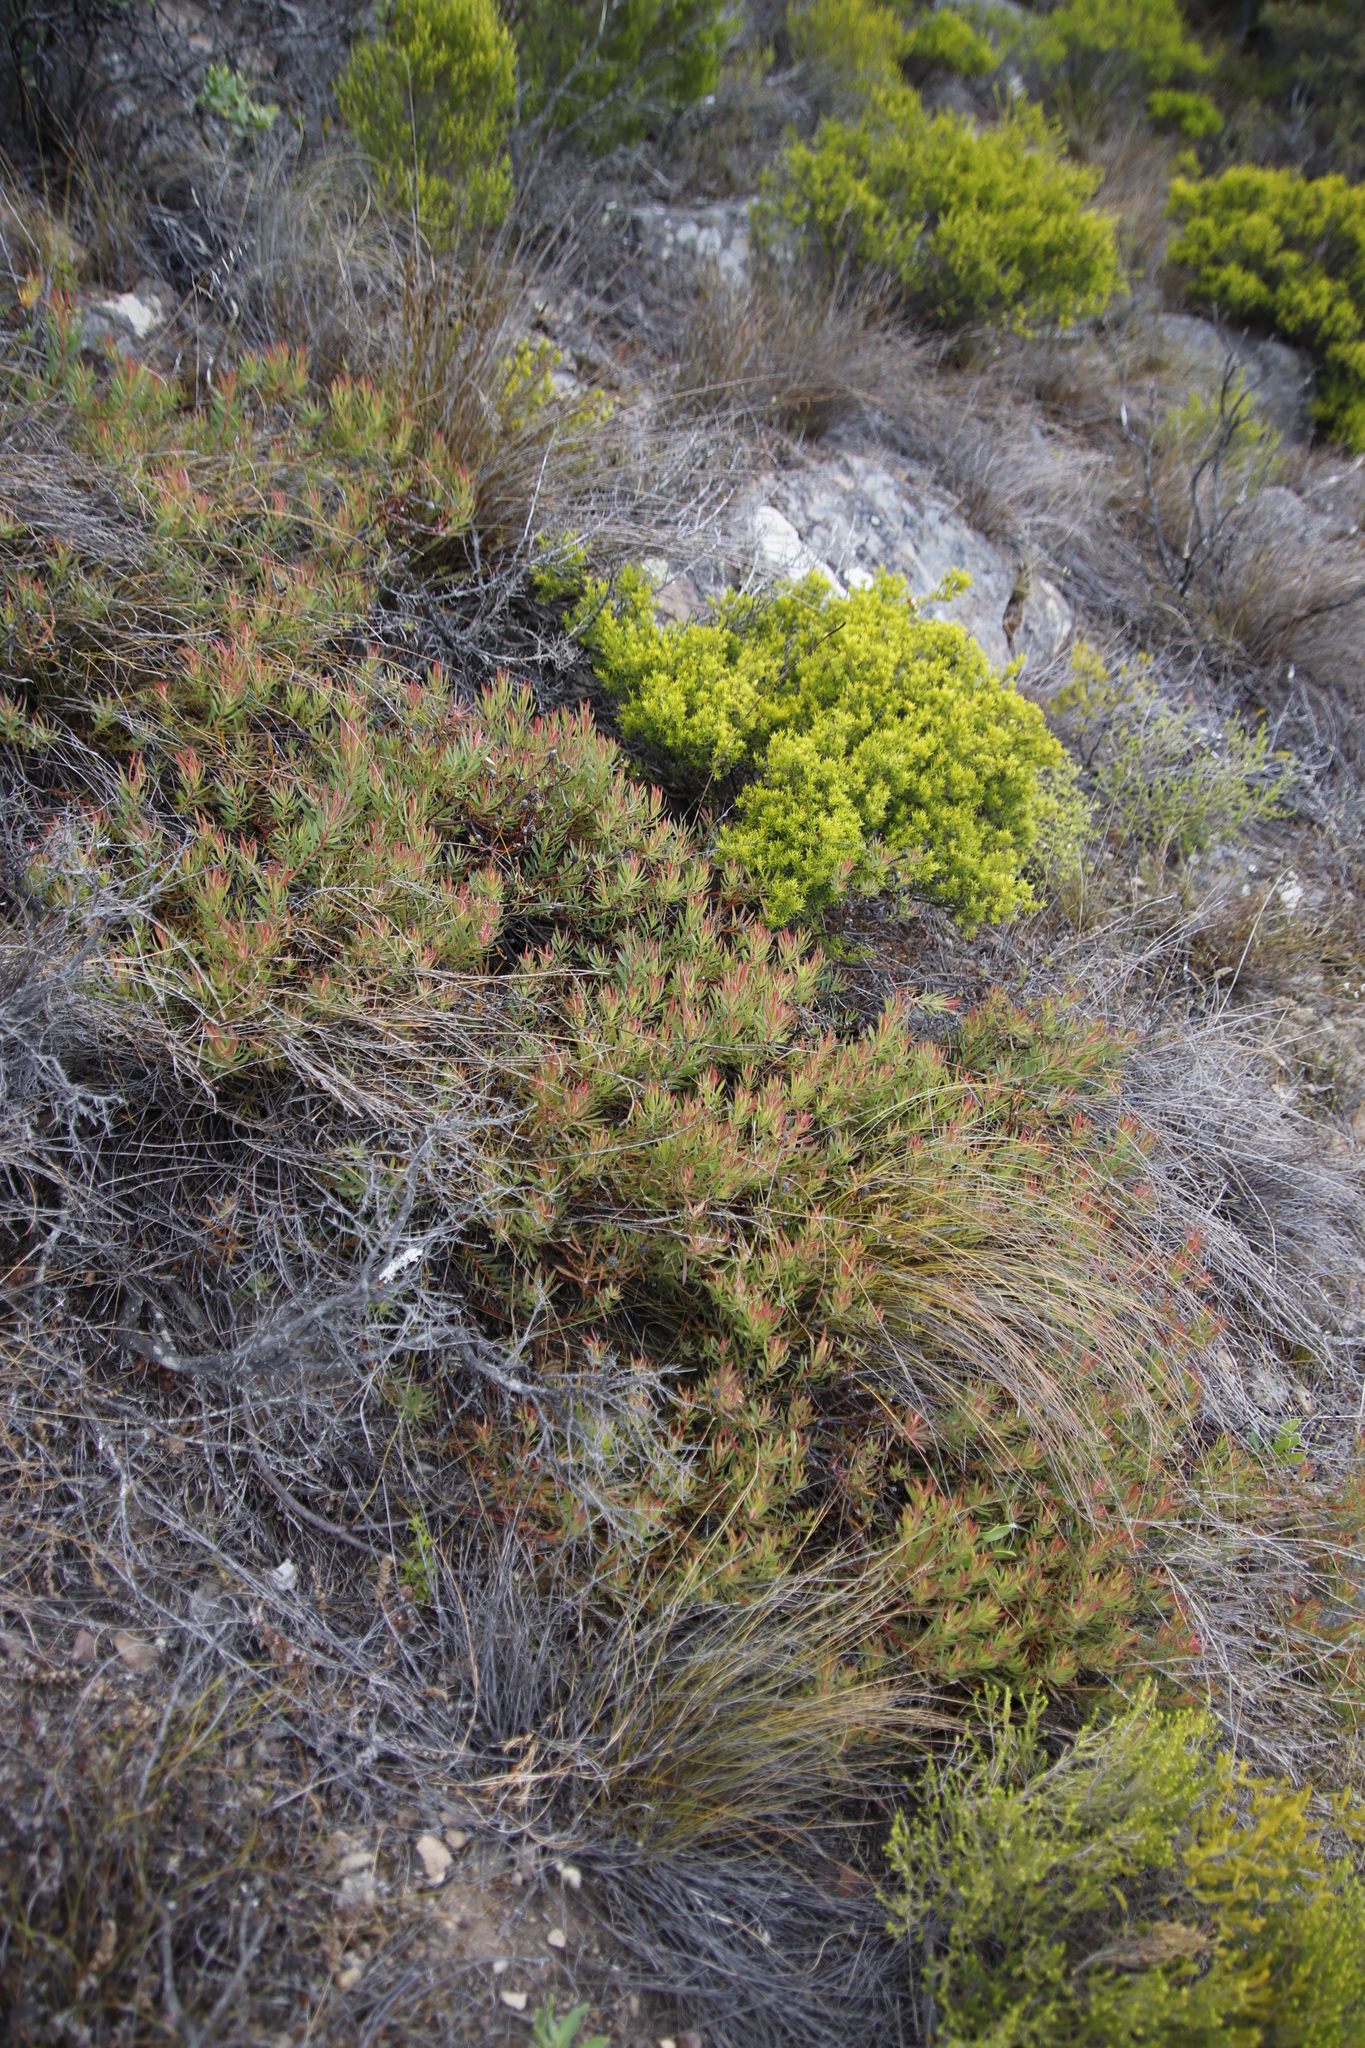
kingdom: Plantae
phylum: Tracheophyta
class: Magnoliopsida
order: Proteales
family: Proteaceae
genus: Leucadendron
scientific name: Leucadendron salignum
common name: Common sunshine conebush
